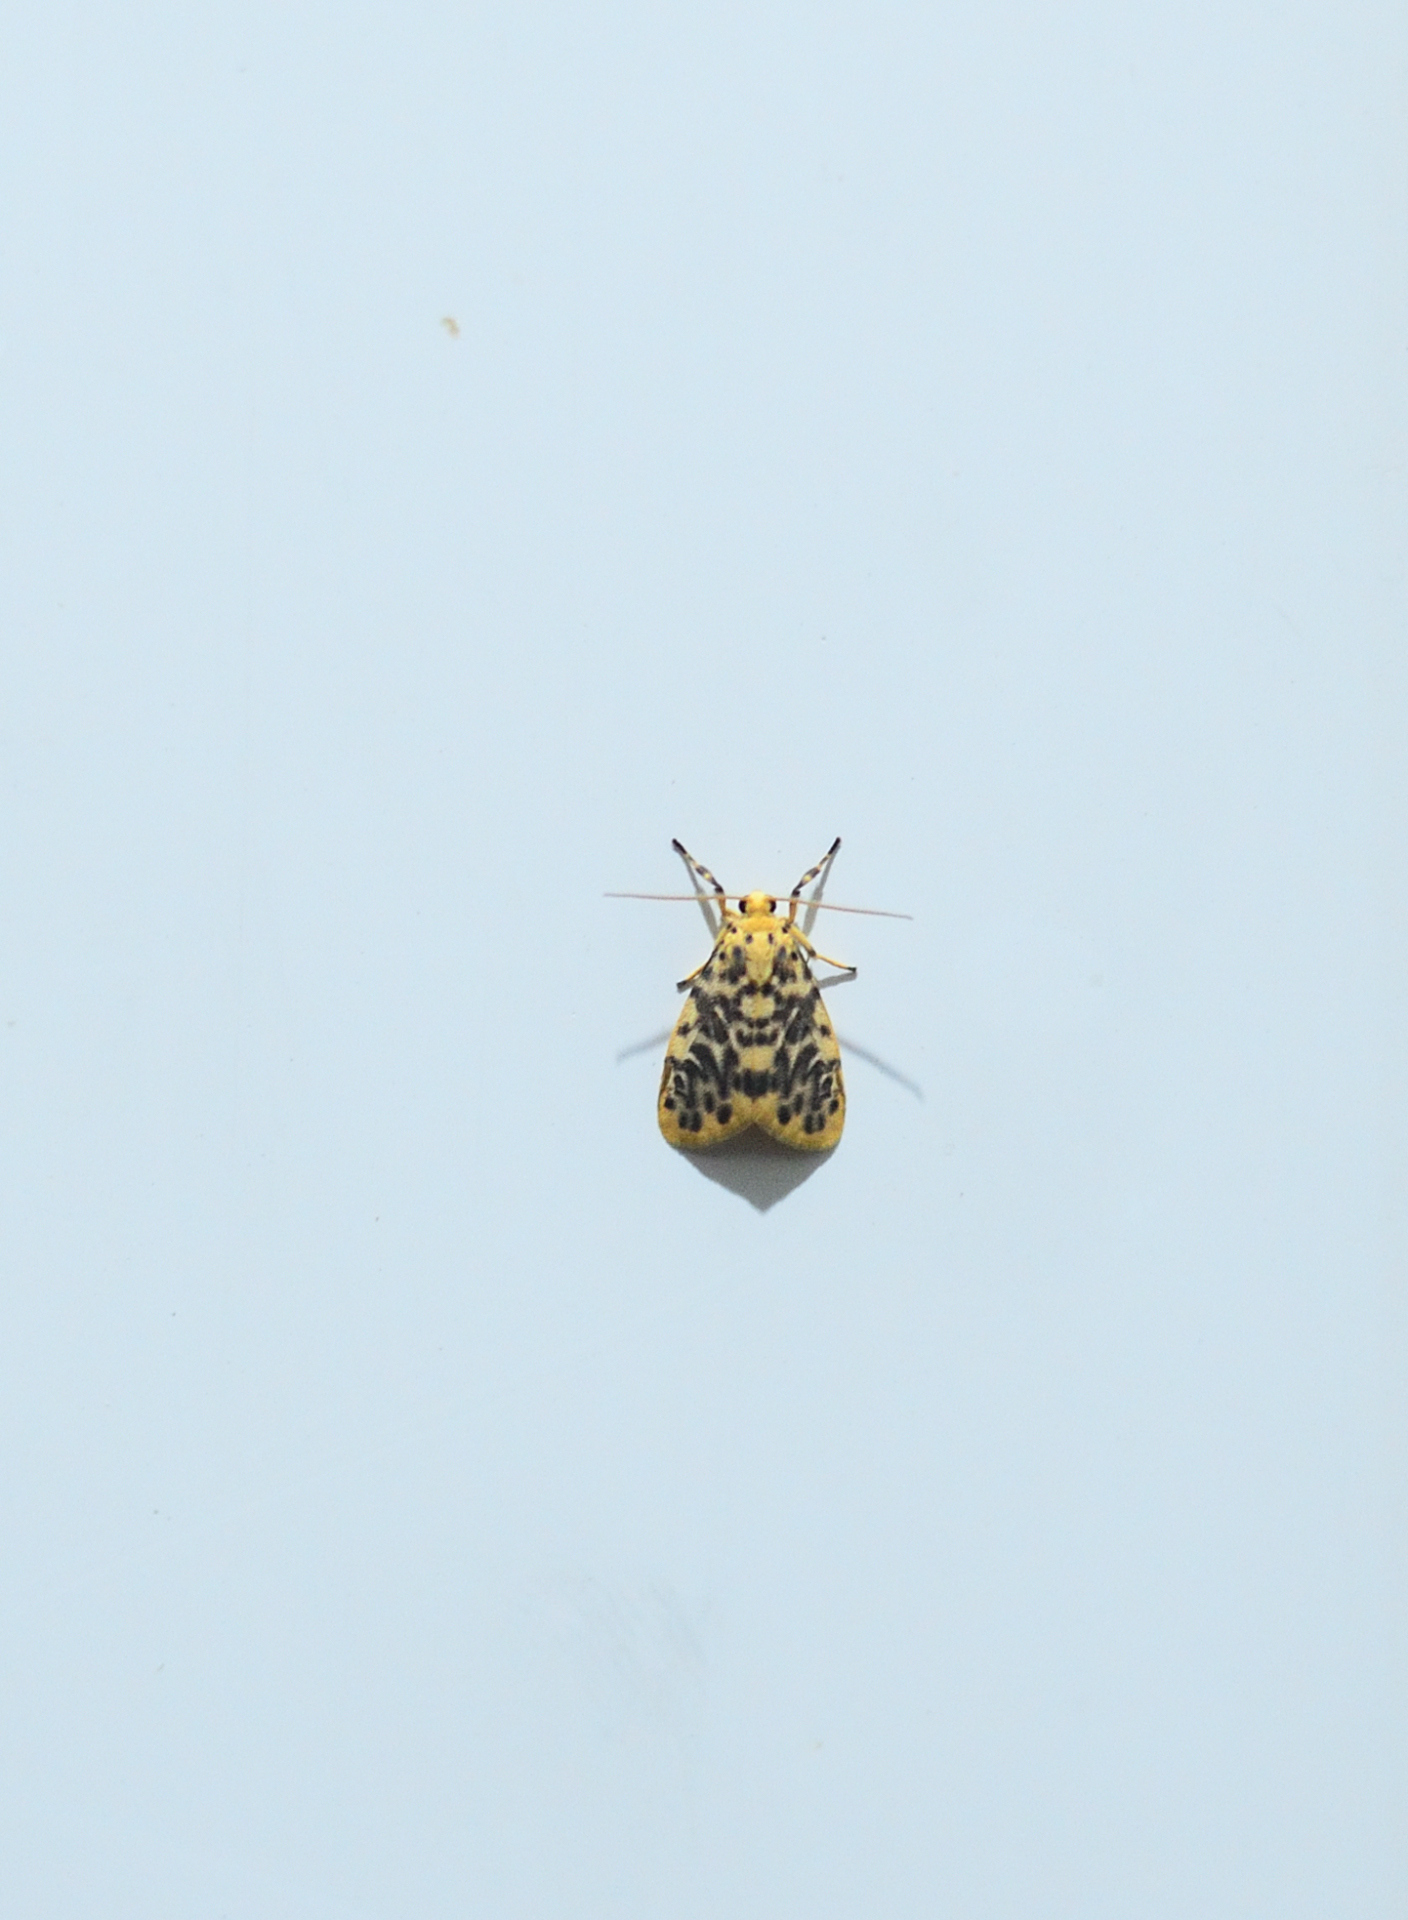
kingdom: Animalia
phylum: Arthropoda
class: Insecta
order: Lepidoptera
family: Erebidae
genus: Miltochrista
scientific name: Miltochrista semifascia
